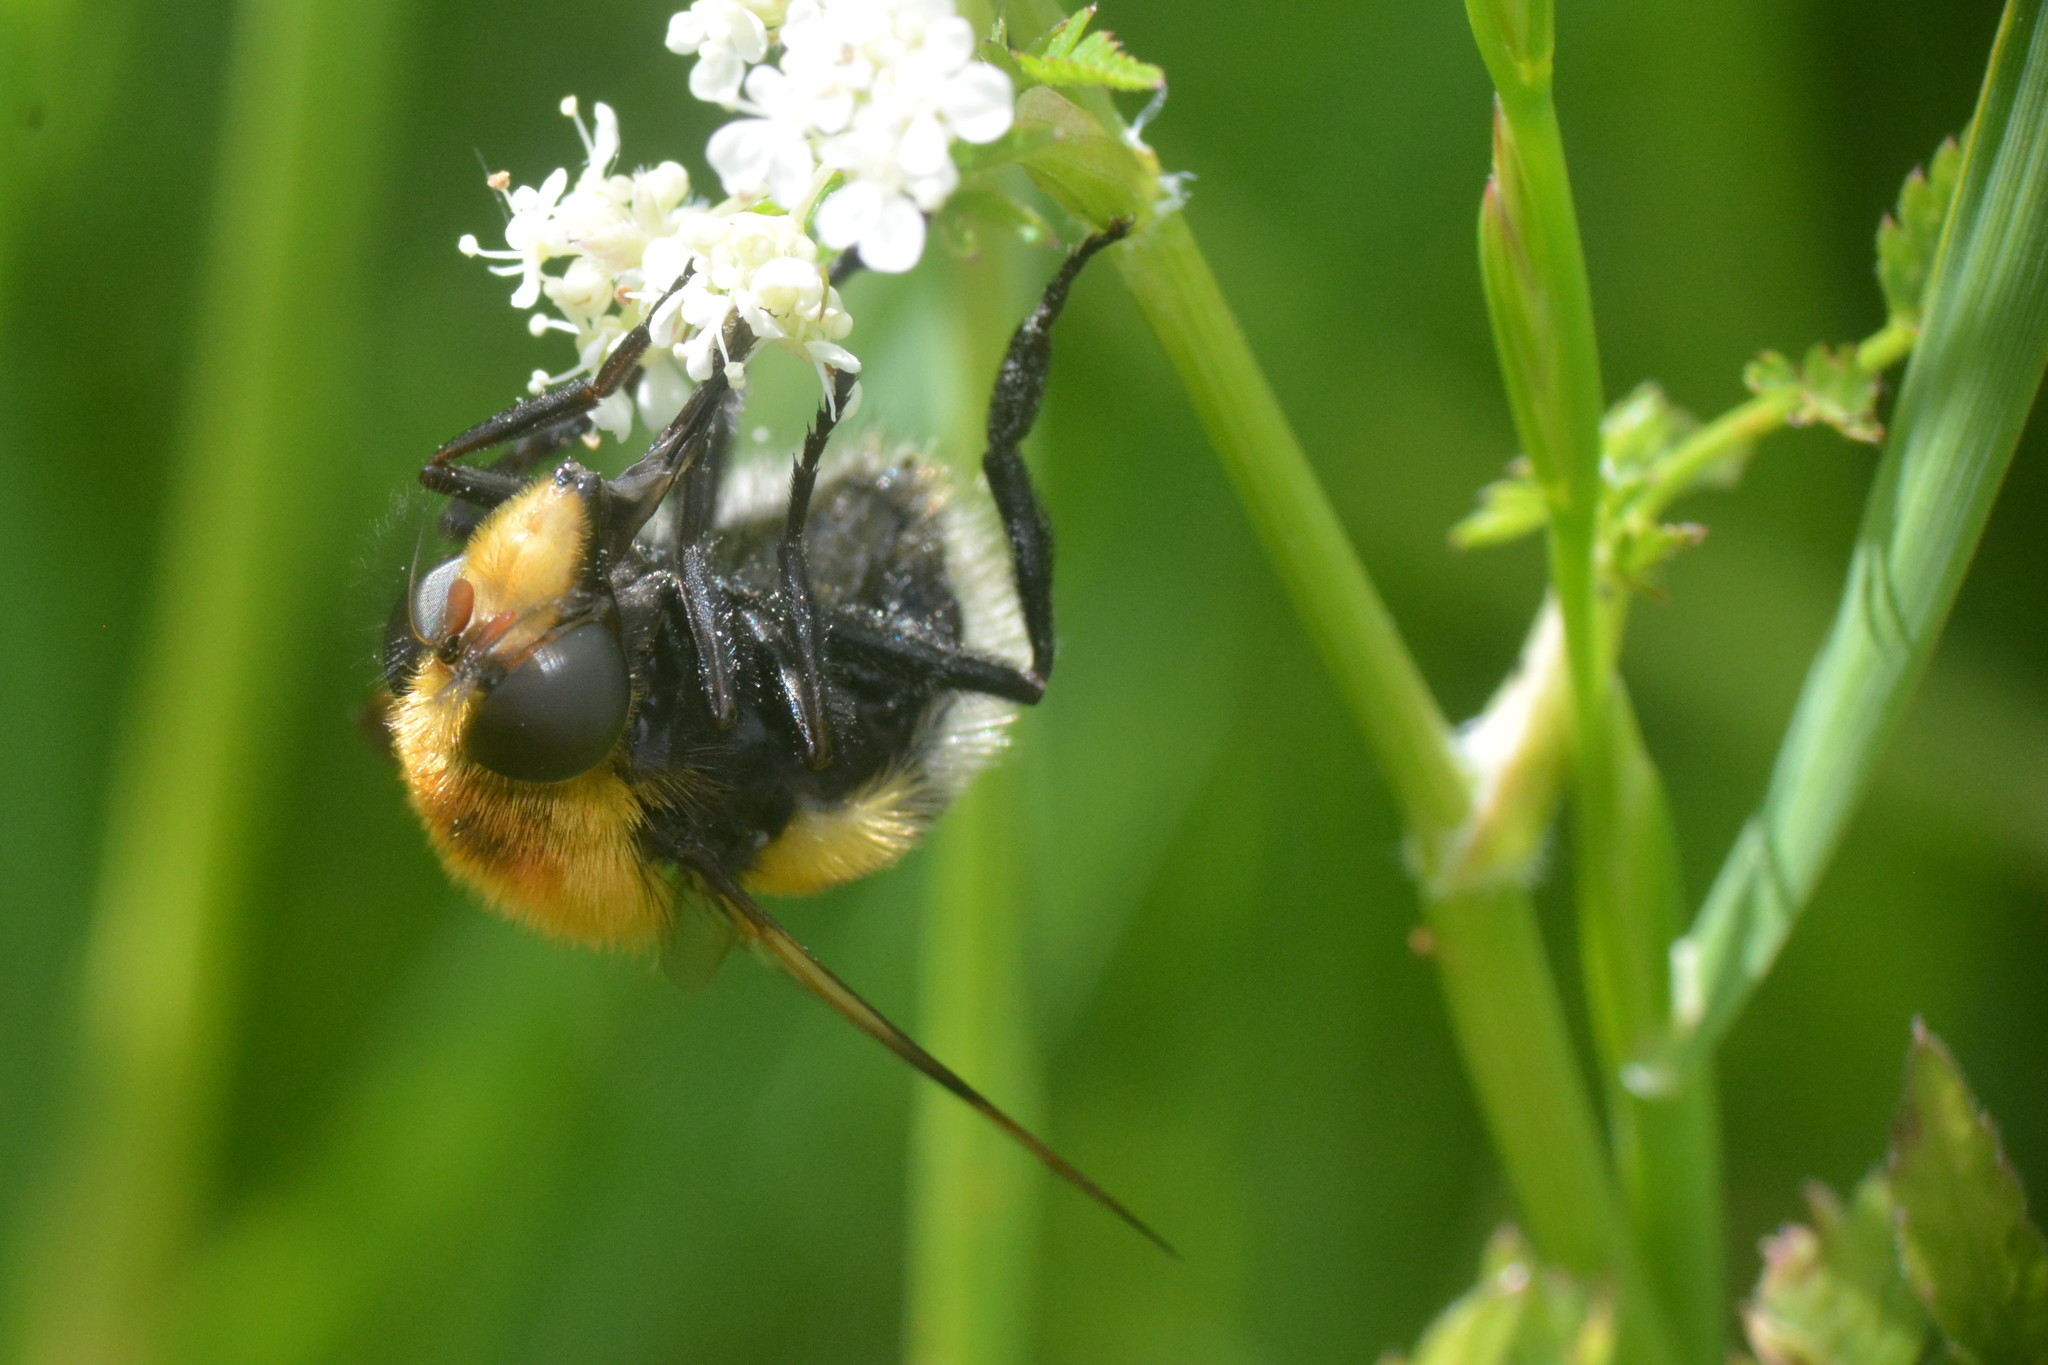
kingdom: Animalia
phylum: Arthropoda
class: Insecta
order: Diptera
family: Syrphidae
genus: Volucella
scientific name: Volucella bombylans
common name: Bumble bee hover fly
